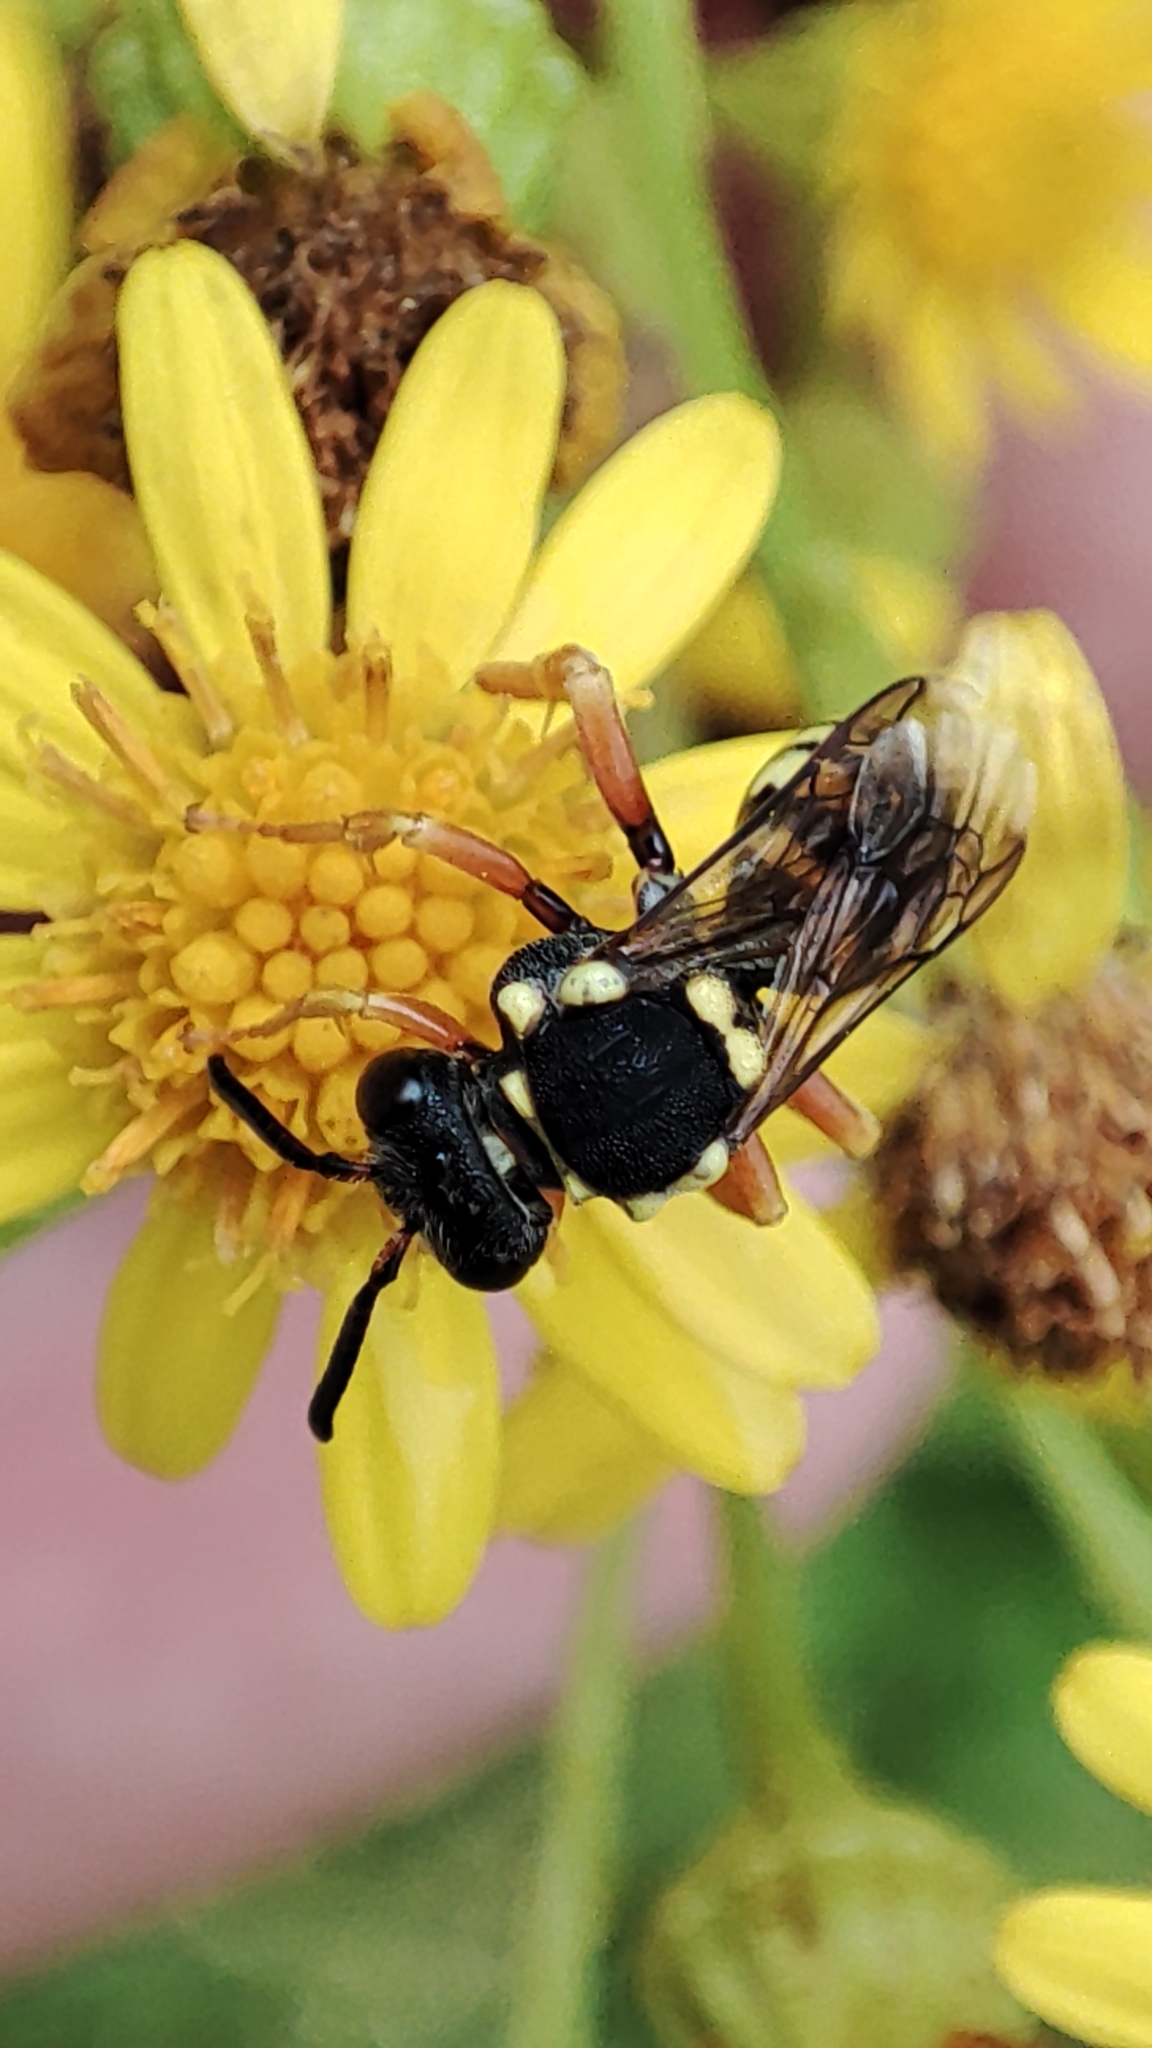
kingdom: Animalia
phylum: Arthropoda
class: Insecta
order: Hymenoptera
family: Apidae
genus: Nomada
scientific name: Nomada flavopicta
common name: Blunthorn nomad bee
